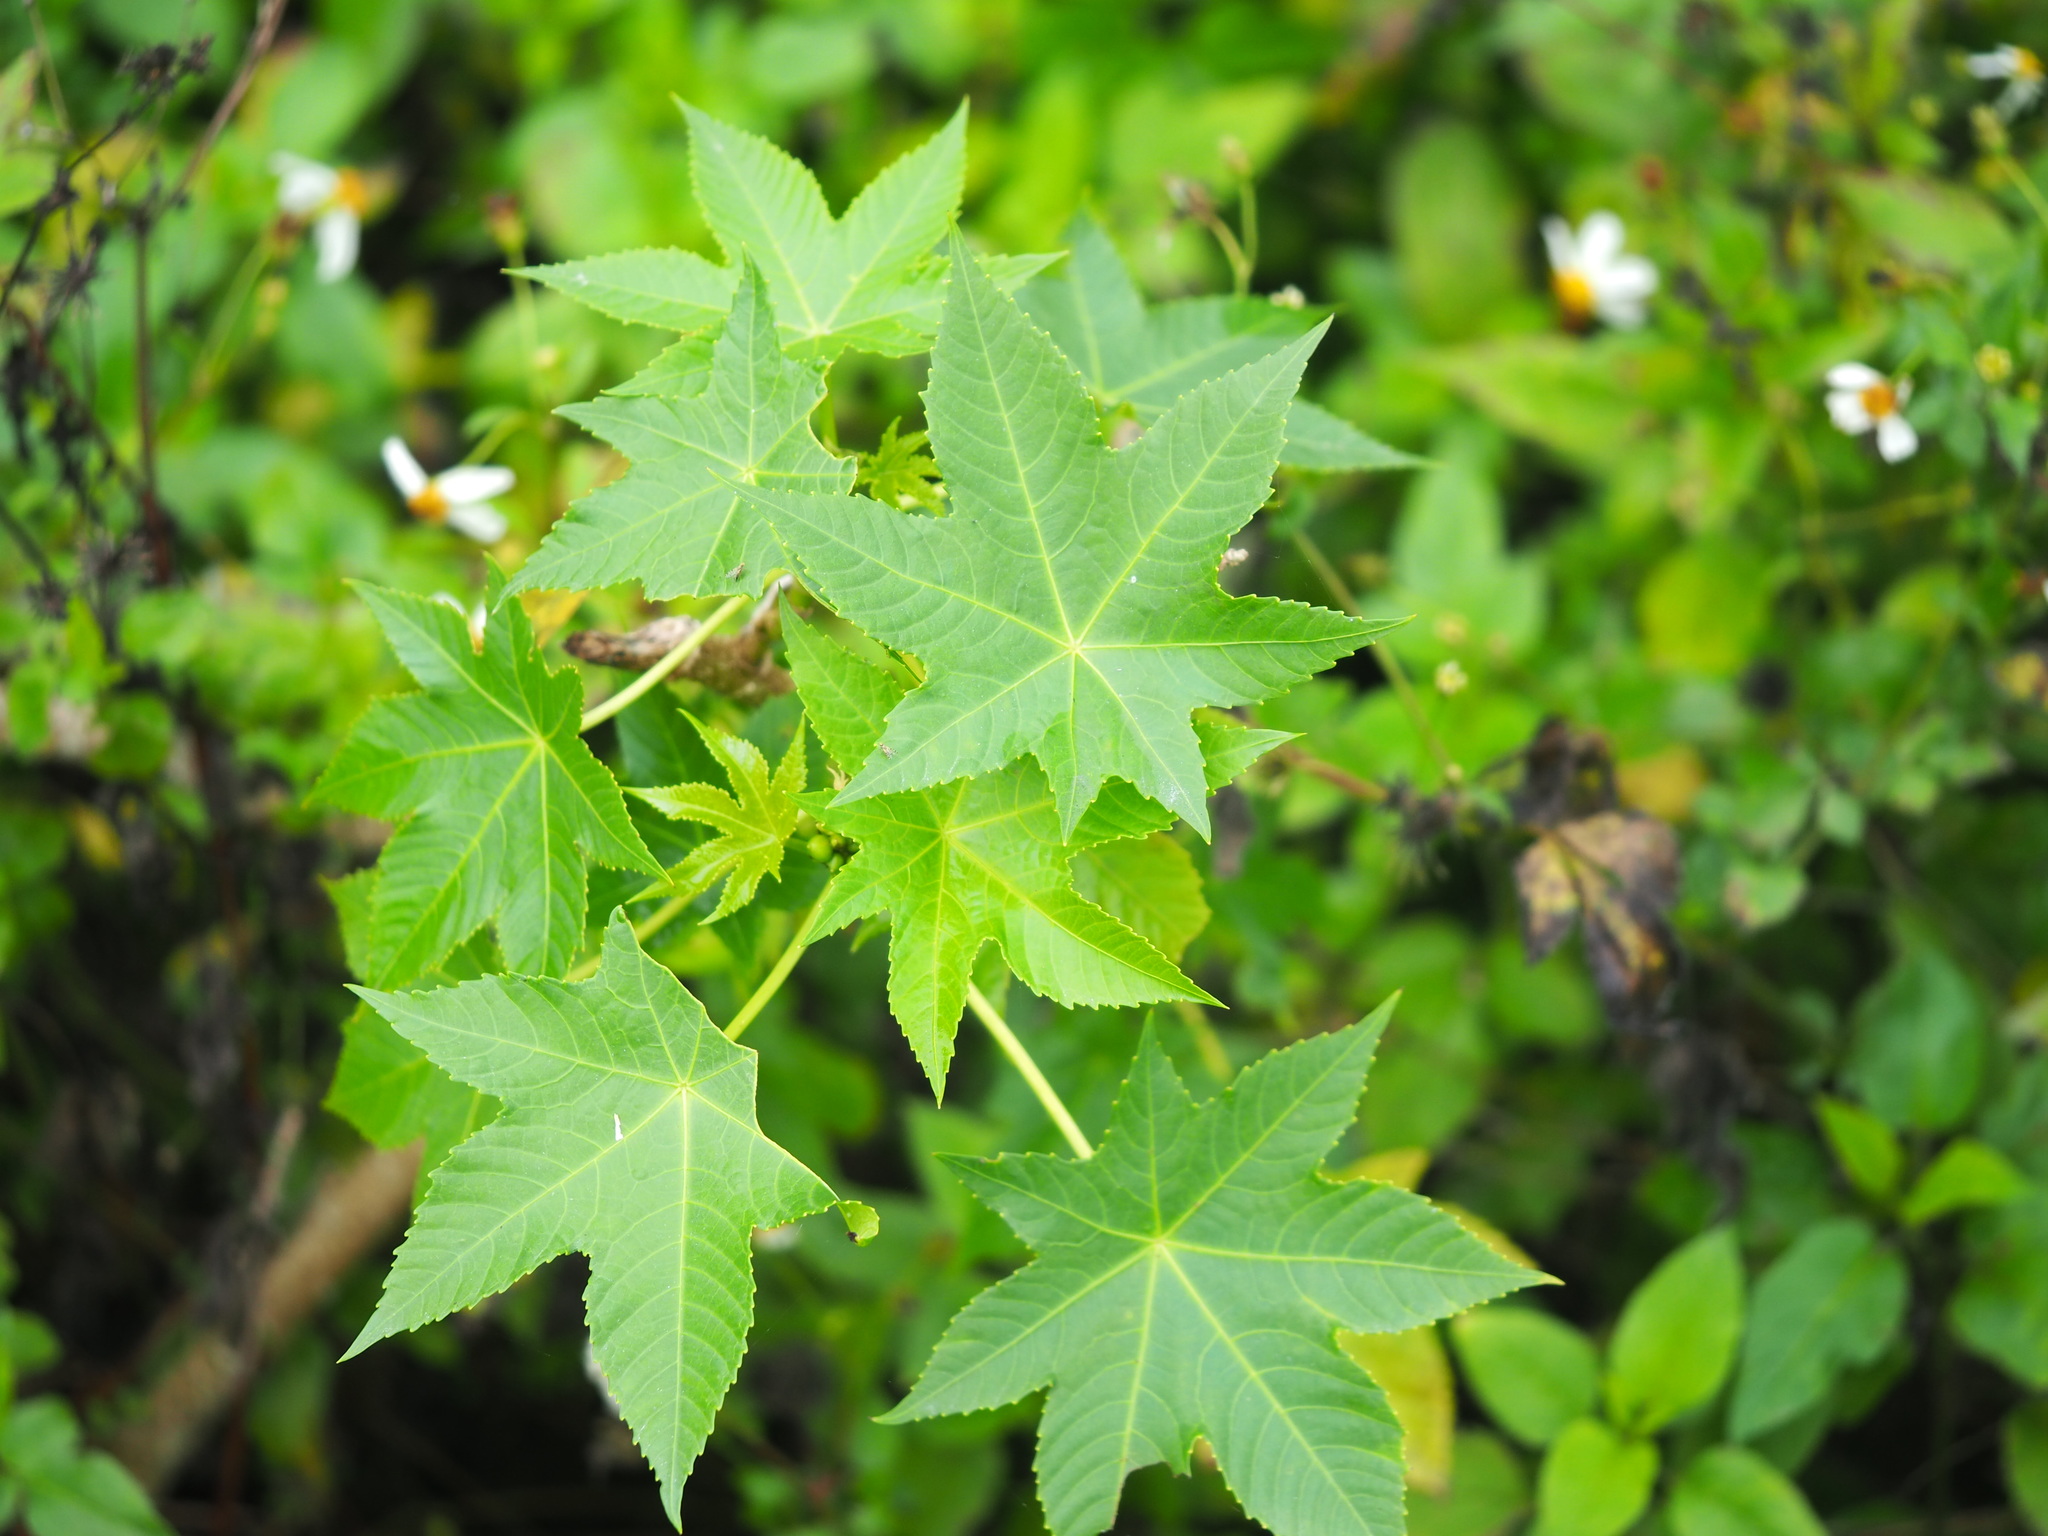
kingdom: Plantae
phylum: Tracheophyta
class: Magnoliopsida
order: Malpighiales
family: Euphorbiaceae
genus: Ricinus
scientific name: Ricinus communis
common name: Castor-oil-plant
